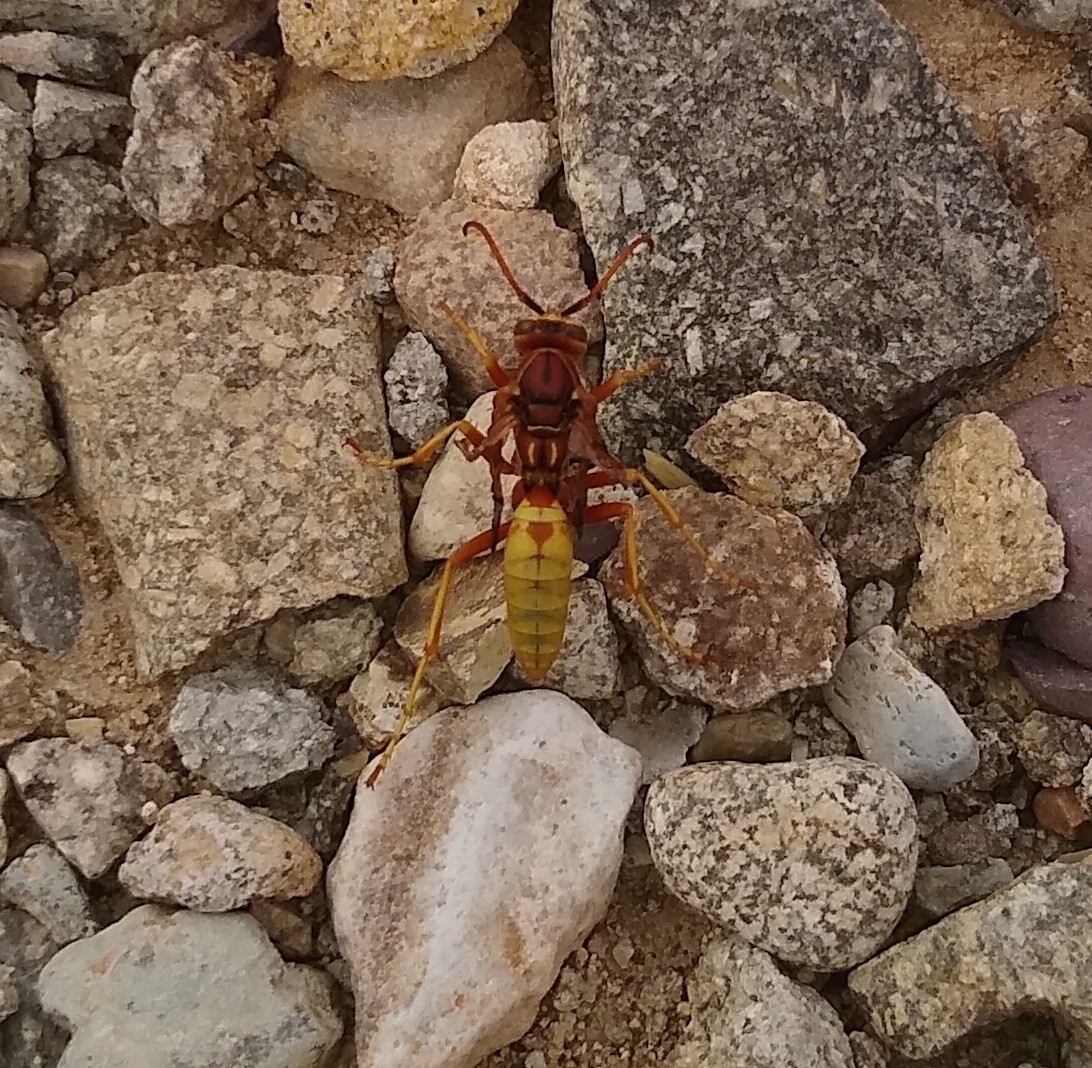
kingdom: Animalia
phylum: Arthropoda
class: Insecta
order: Hymenoptera
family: Eumenidae
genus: Polistes
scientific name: Polistes aurifer
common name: Paper wasp
